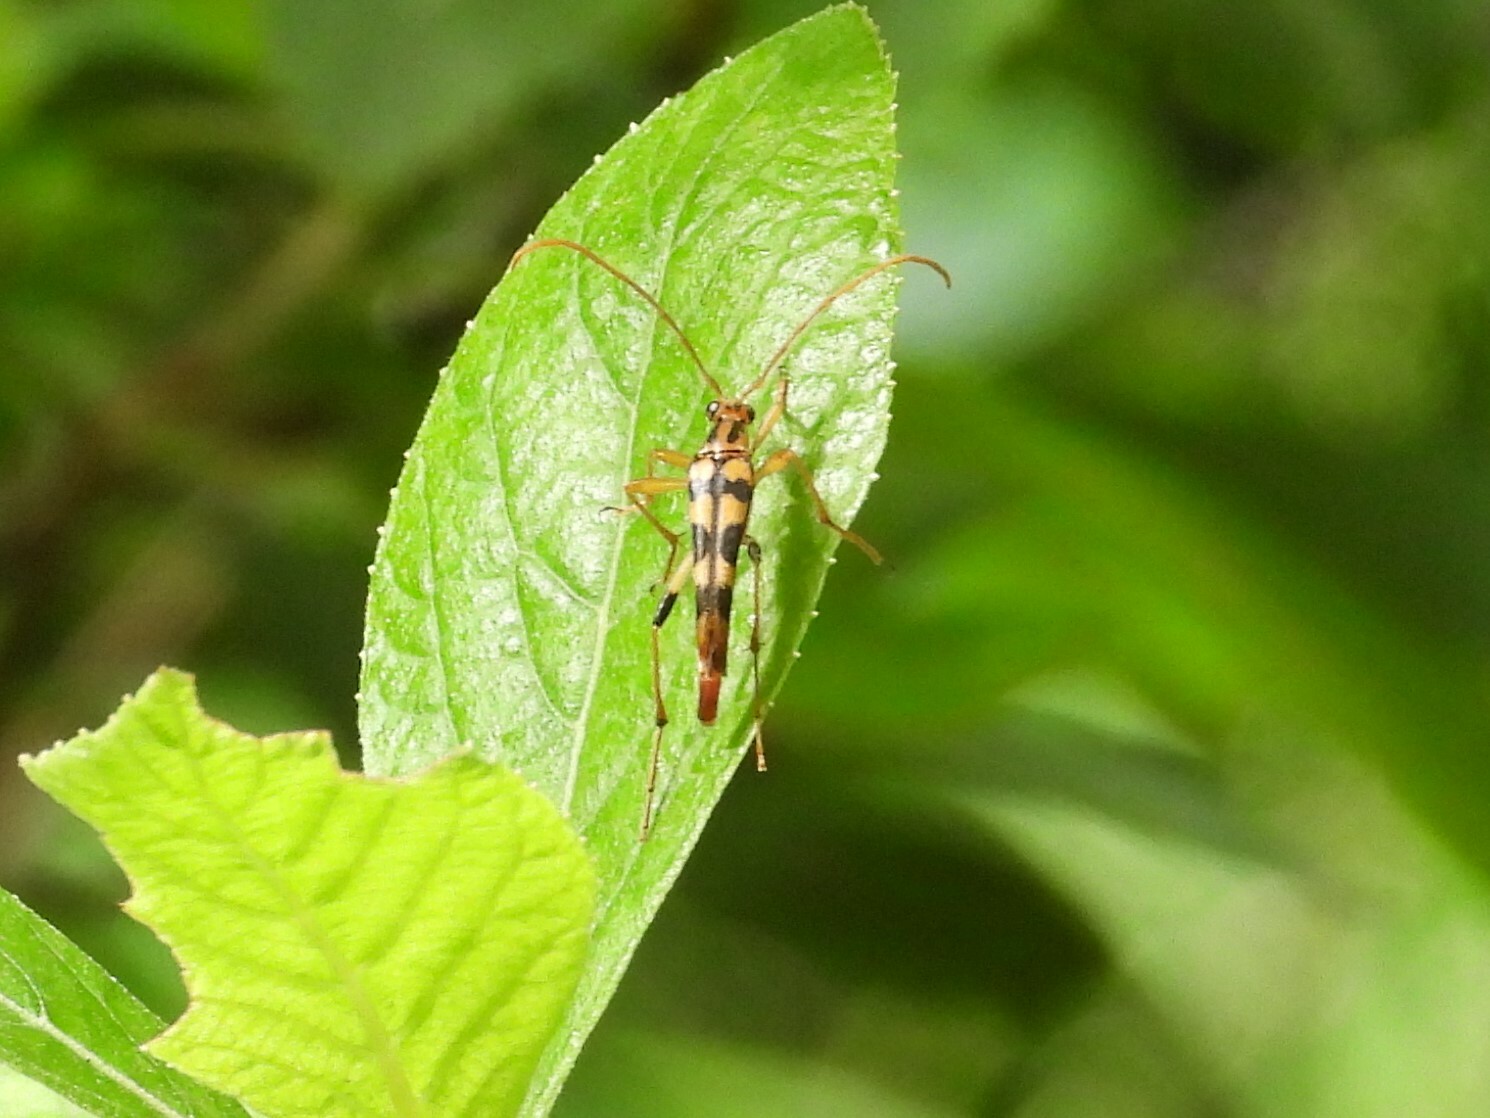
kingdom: Animalia
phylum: Arthropoda
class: Insecta
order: Coleoptera
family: Cerambycidae
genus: Strangalia
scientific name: Strangalia luteicornis
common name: Yellow-horned flower longhorn beetle
